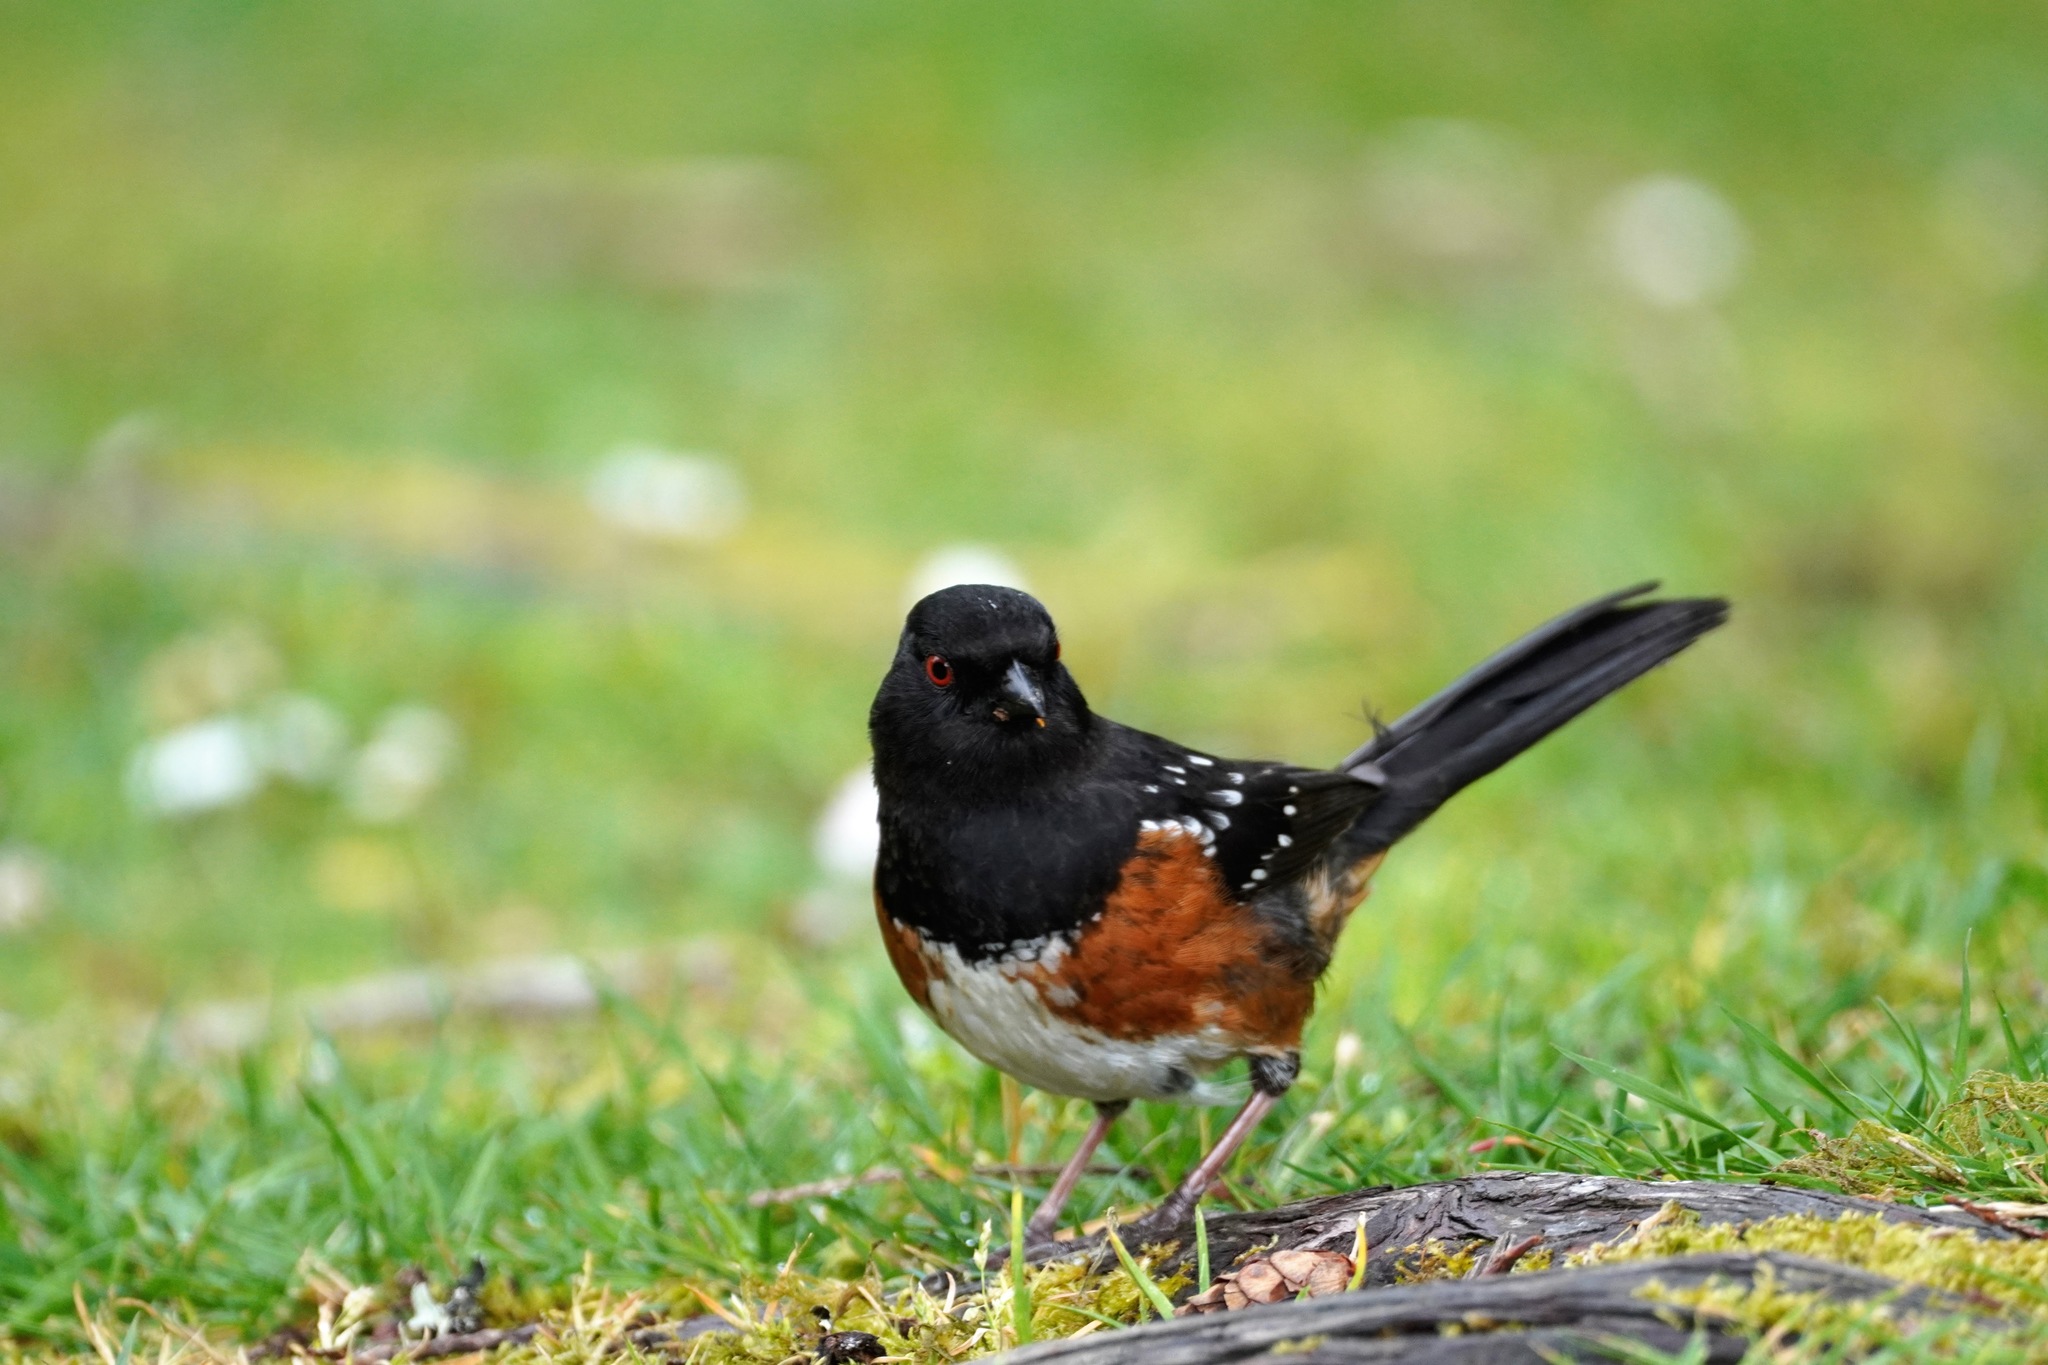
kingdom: Animalia
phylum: Chordata
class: Aves
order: Passeriformes
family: Passerellidae
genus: Pipilo
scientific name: Pipilo maculatus
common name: Spotted towhee
